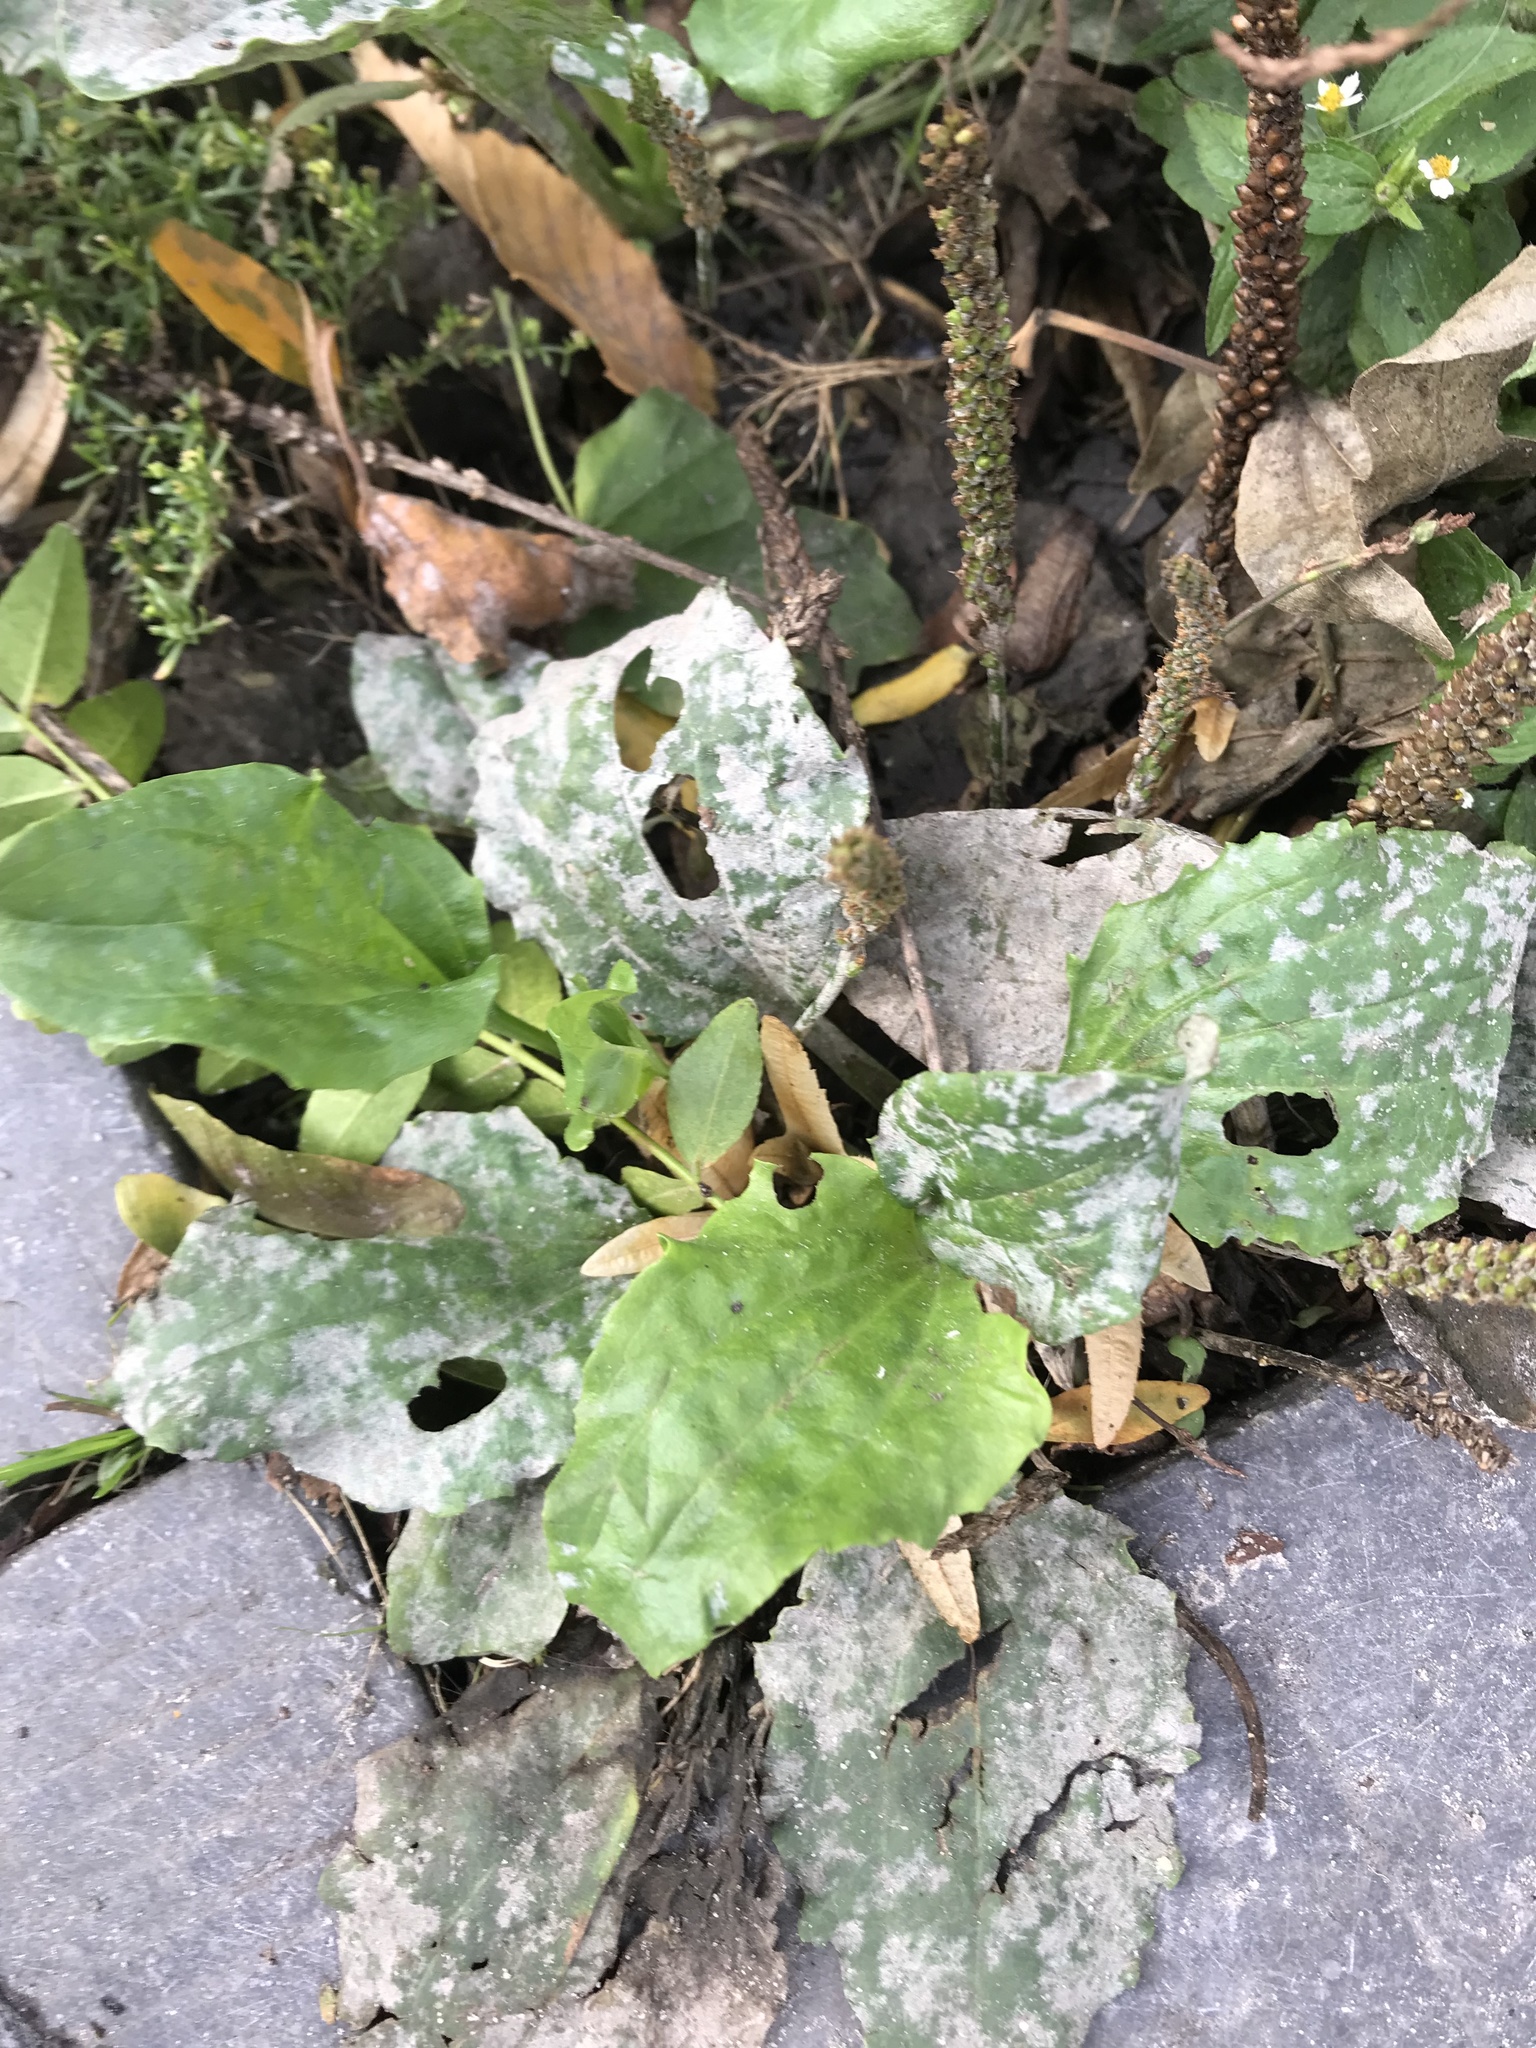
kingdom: Plantae
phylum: Tracheophyta
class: Magnoliopsida
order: Lamiales
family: Plantaginaceae
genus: Plantago
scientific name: Plantago major
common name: Common plantain
